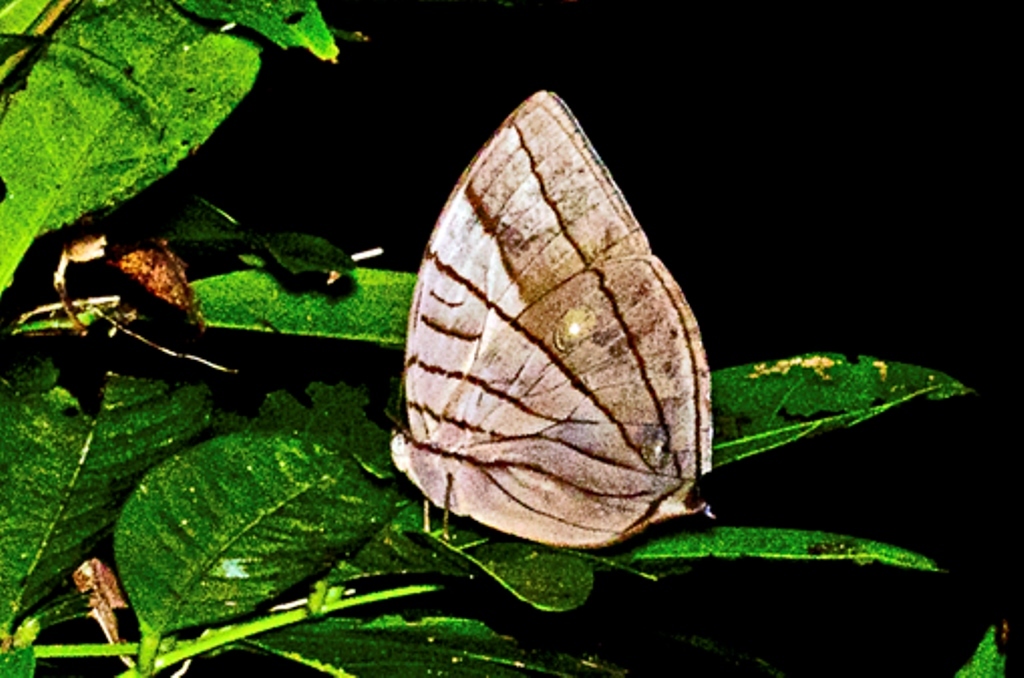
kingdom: Animalia
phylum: Arthropoda
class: Insecta
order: Lepidoptera
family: Nymphalidae
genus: Amathuxidia
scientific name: Amathuxidia amythaon
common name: Koh-i-noor
